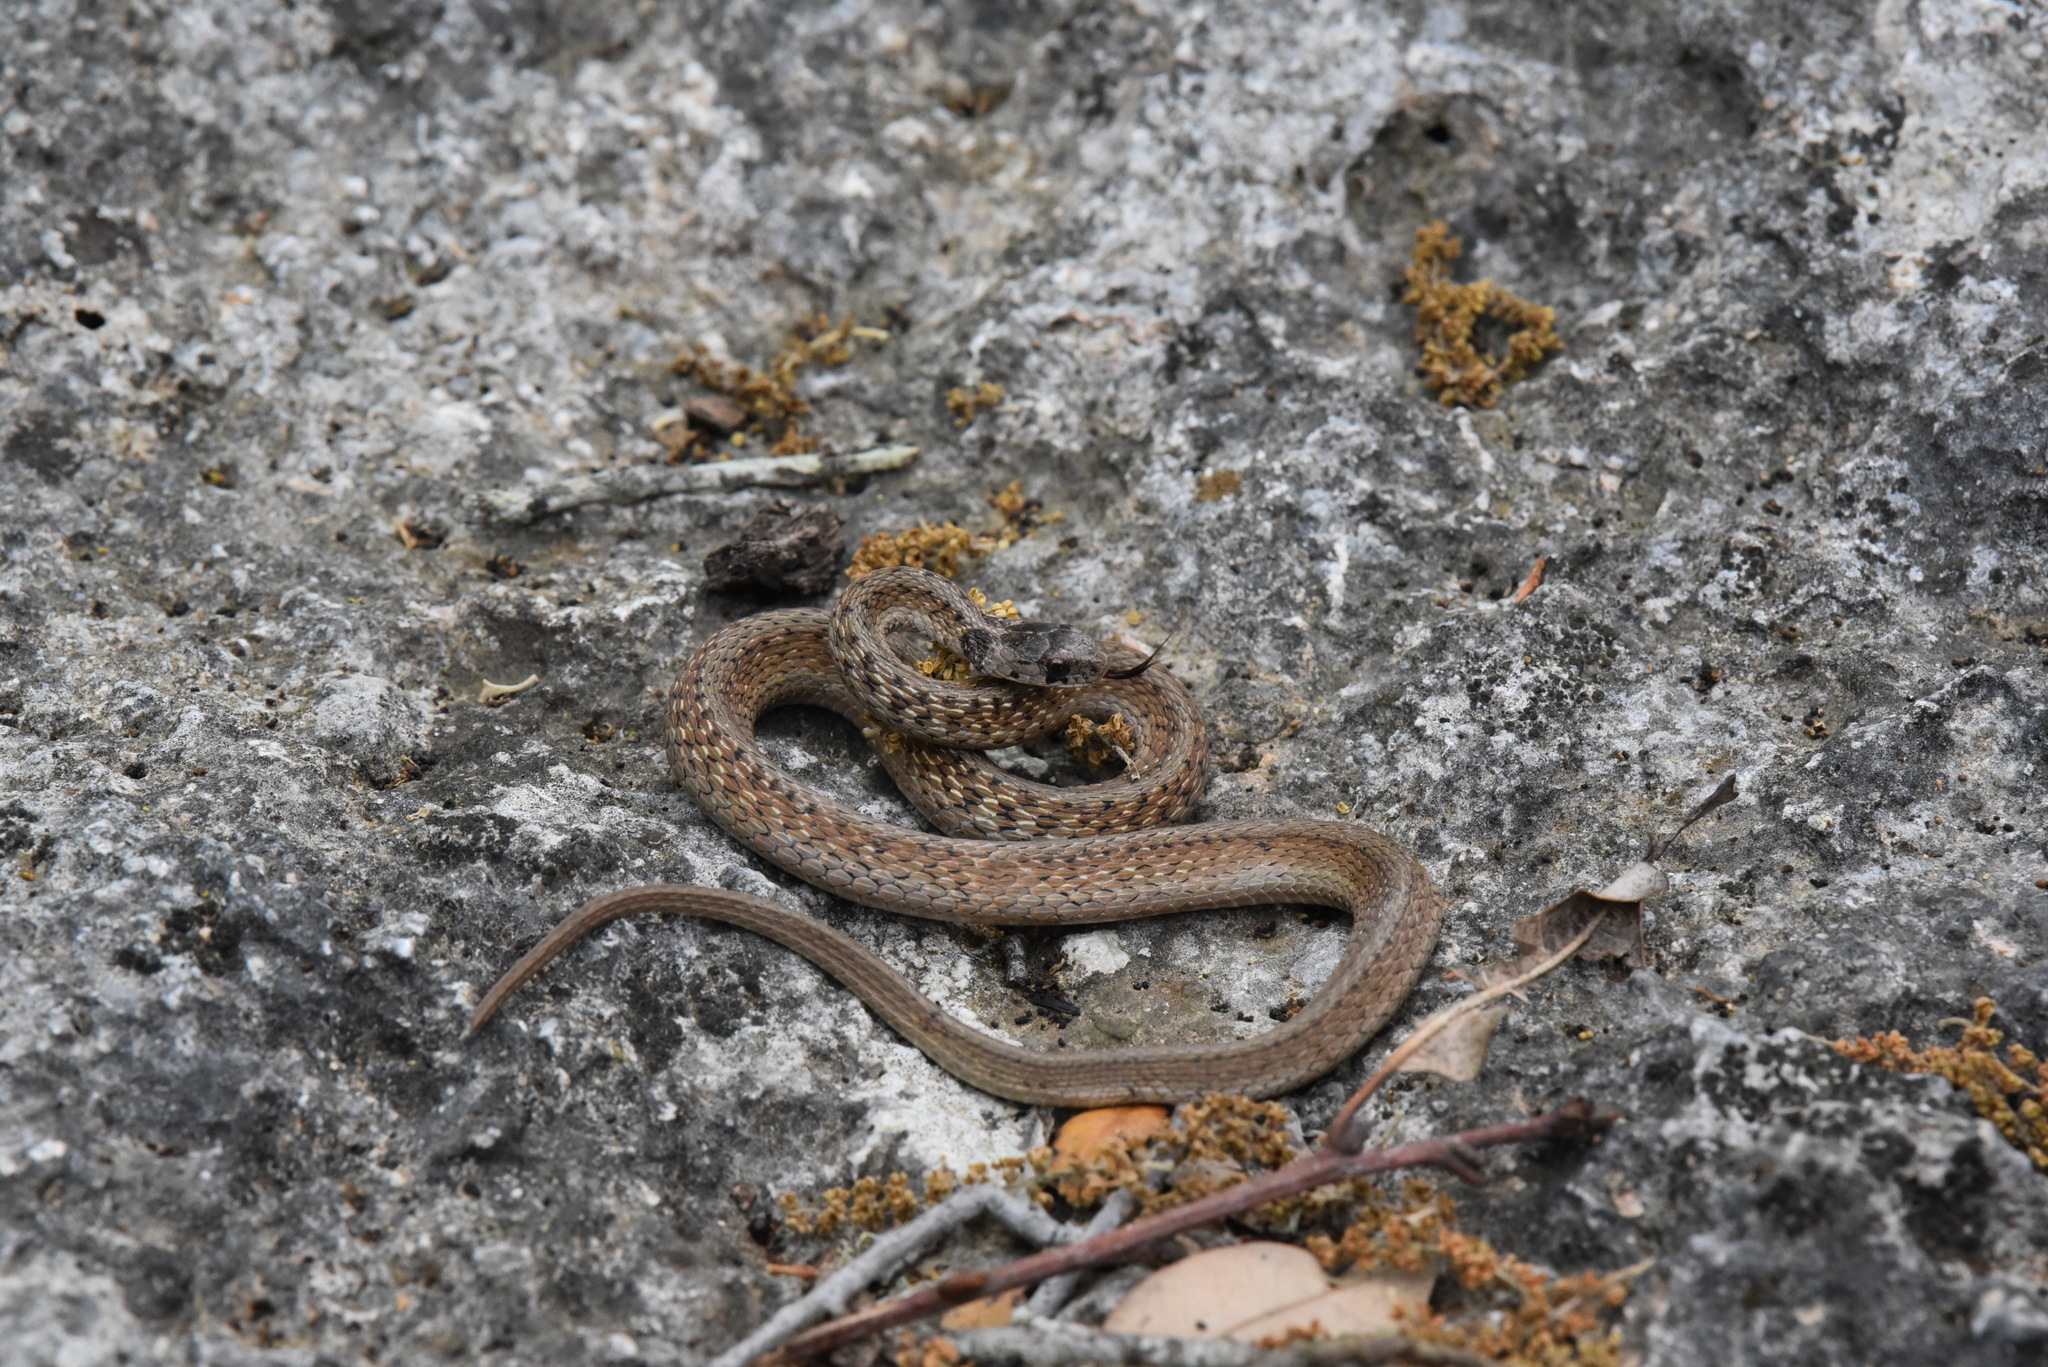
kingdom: Animalia
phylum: Chordata
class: Squamata
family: Colubridae
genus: Storeria
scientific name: Storeria dekayi
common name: (dekay’s) brown snake
